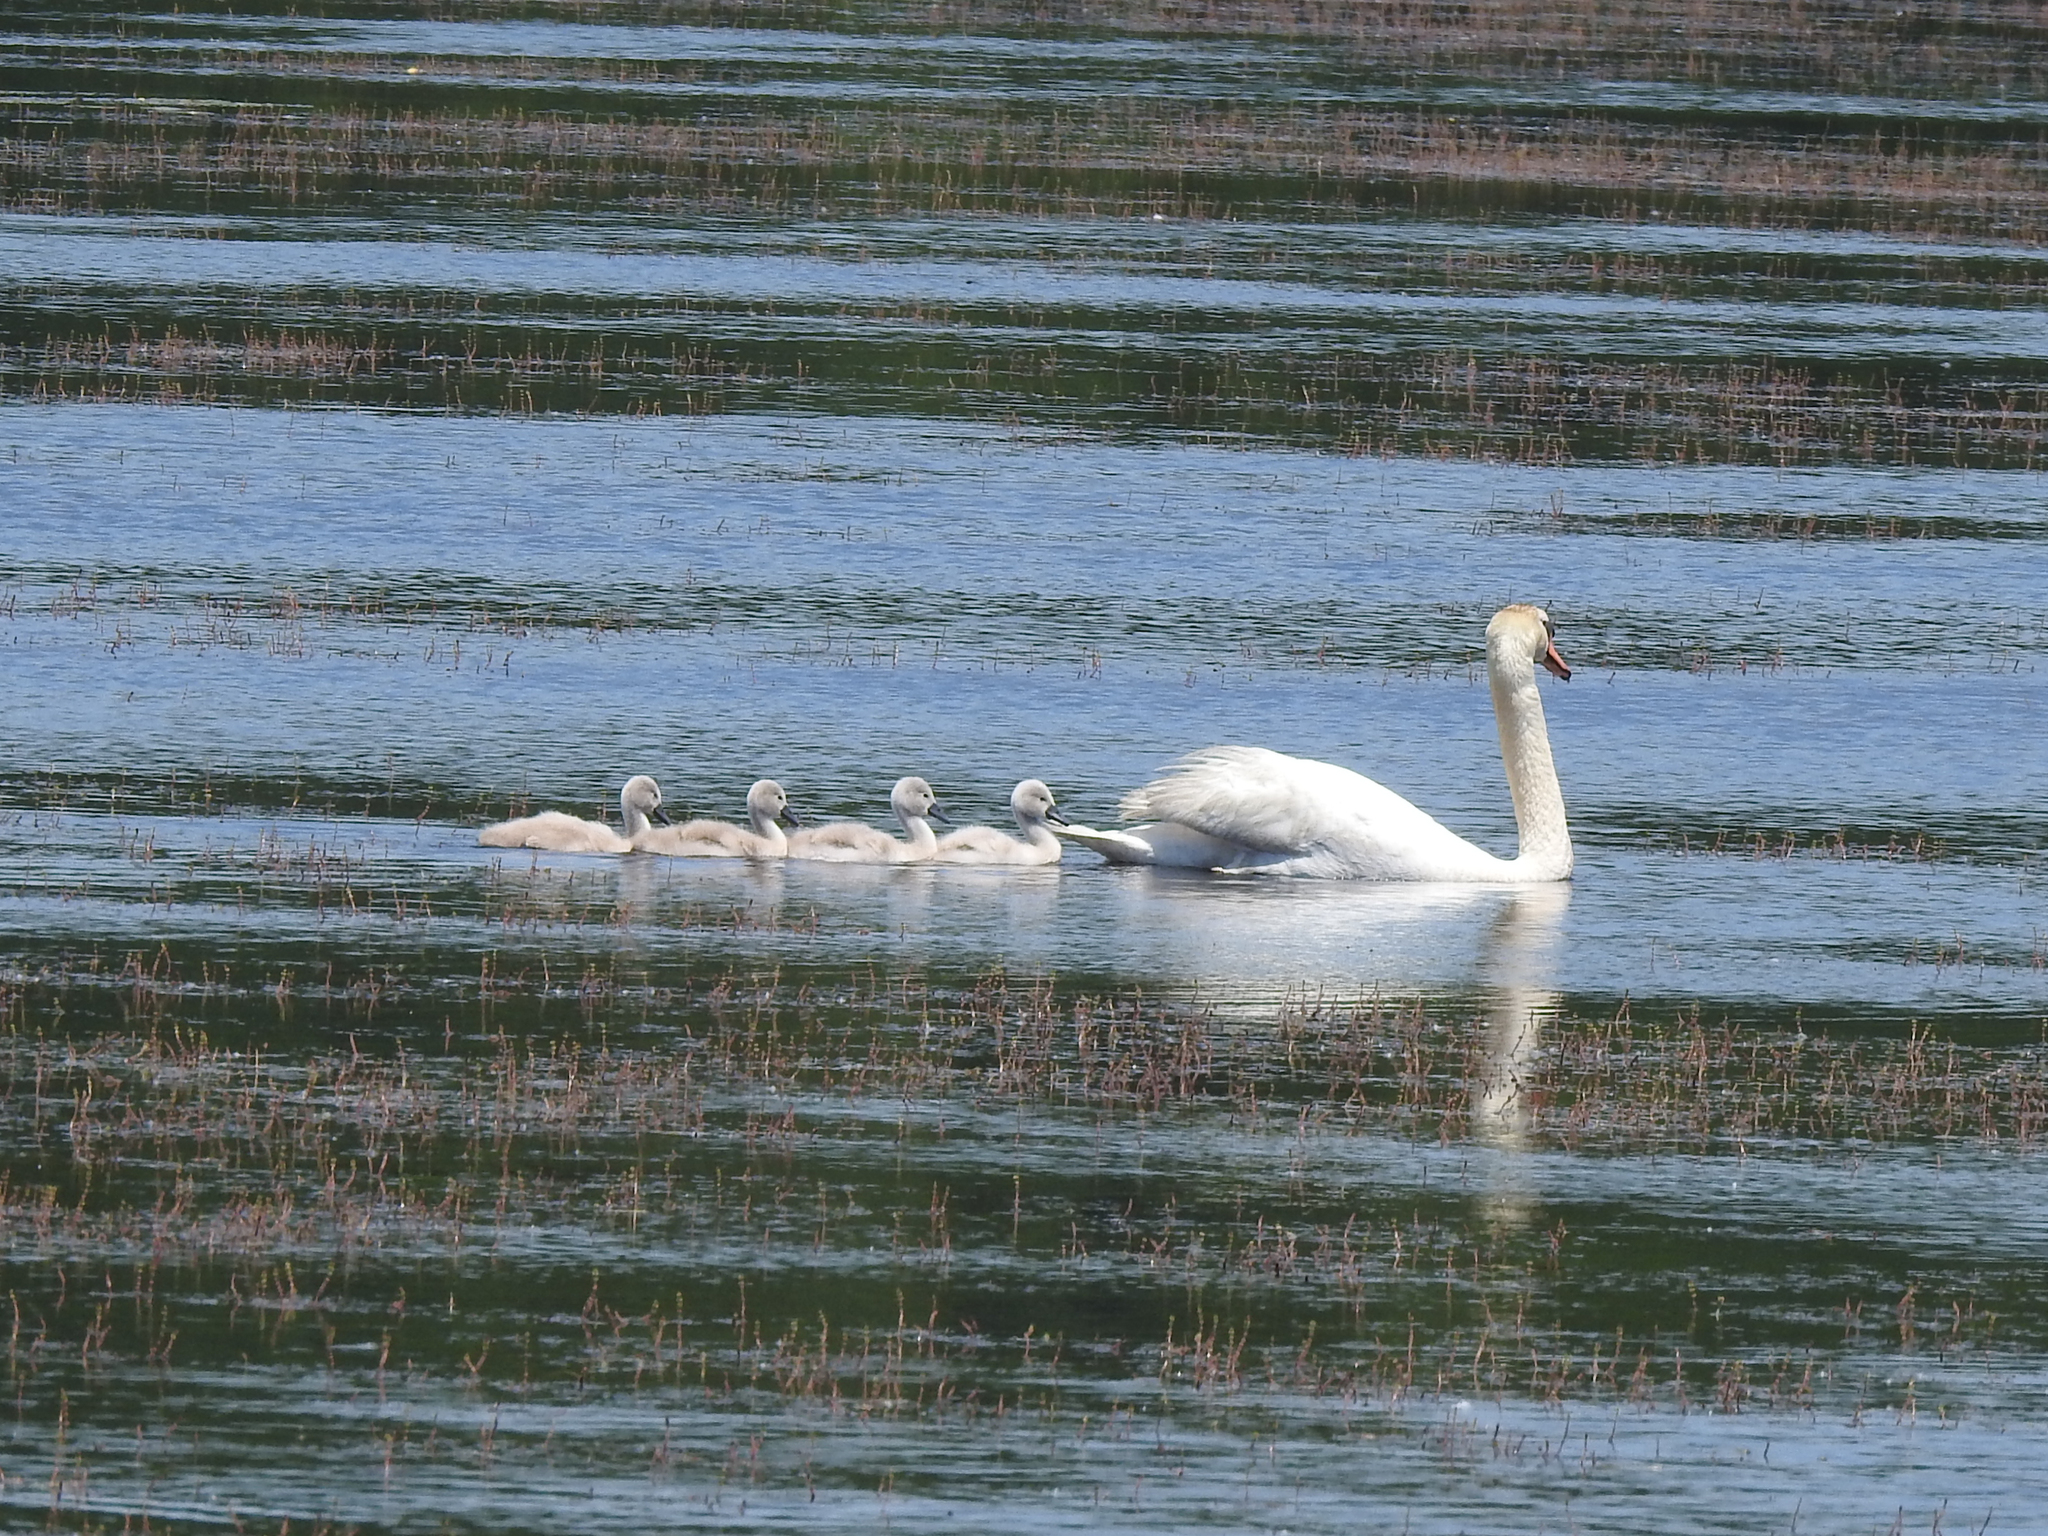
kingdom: Animalia
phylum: Chordata
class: Aves
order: Anseriformes
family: Anatidae
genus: Cygnus
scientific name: Cygnus olor
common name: Mute swan
